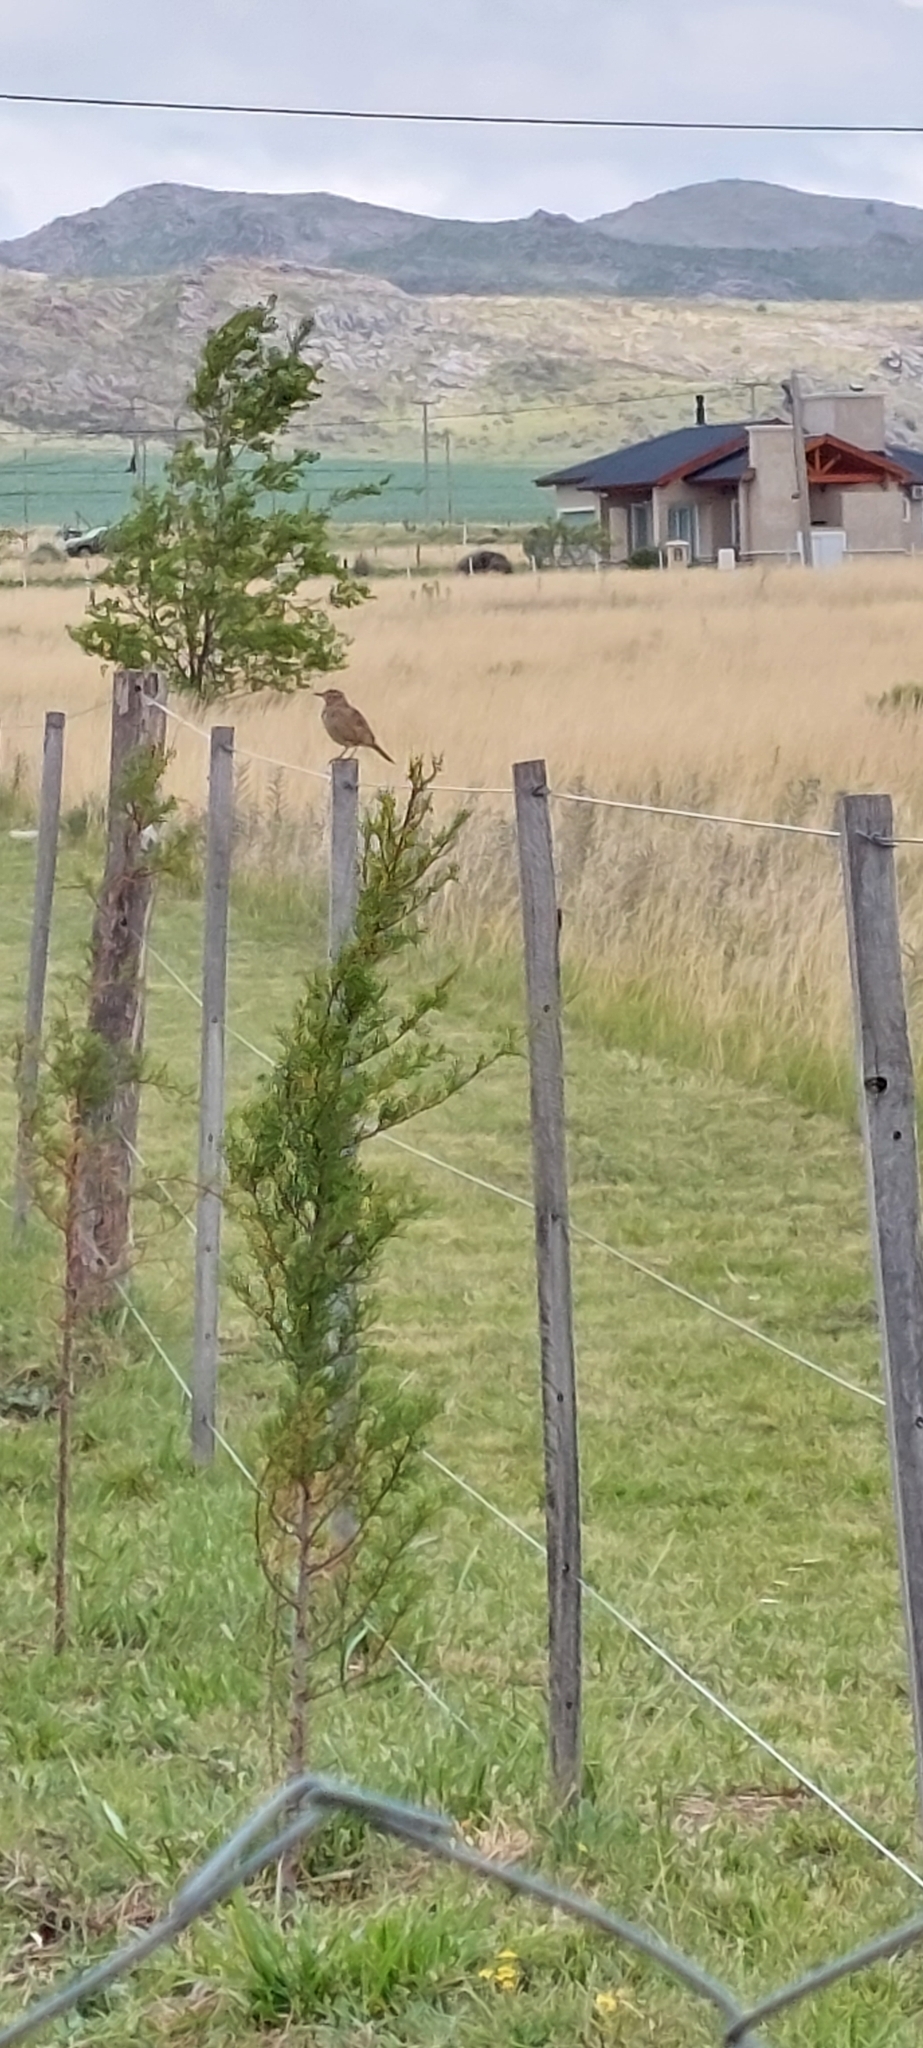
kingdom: Animalia
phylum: Chordata
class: Aves
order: Passeriformes
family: Furnariidae
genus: Anumbius
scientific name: Anumbius annumbi
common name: Firewood-gatherer
